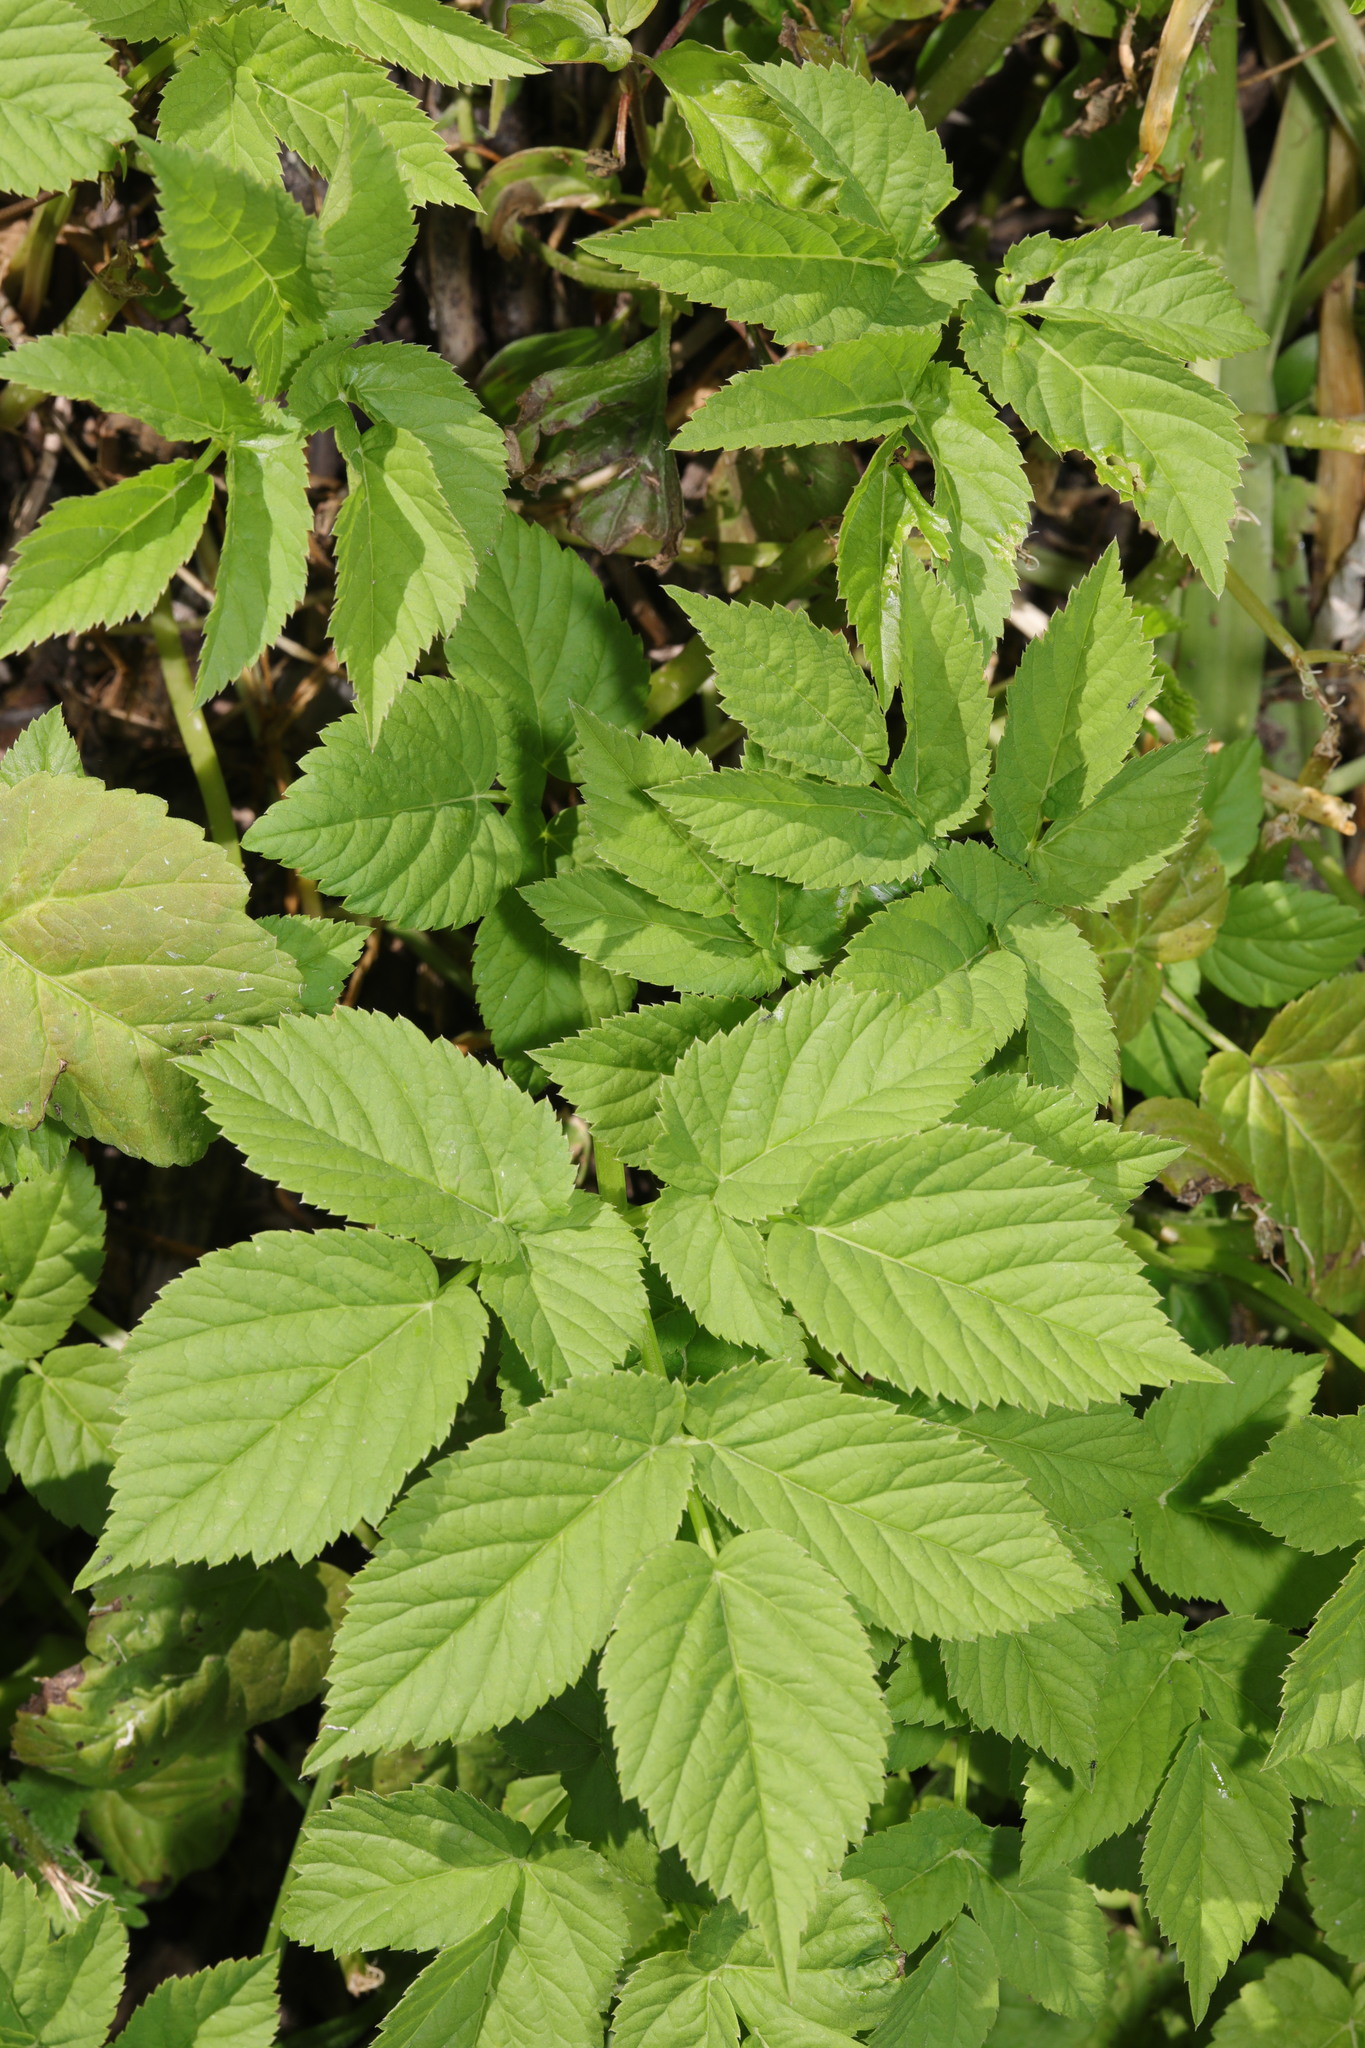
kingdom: Plantae
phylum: Tracheophyta
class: Magnoliopsida
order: Apiales
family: Apiaceae
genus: Aegopodium
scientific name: Aegopodium podagraria
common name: Ground-elder
